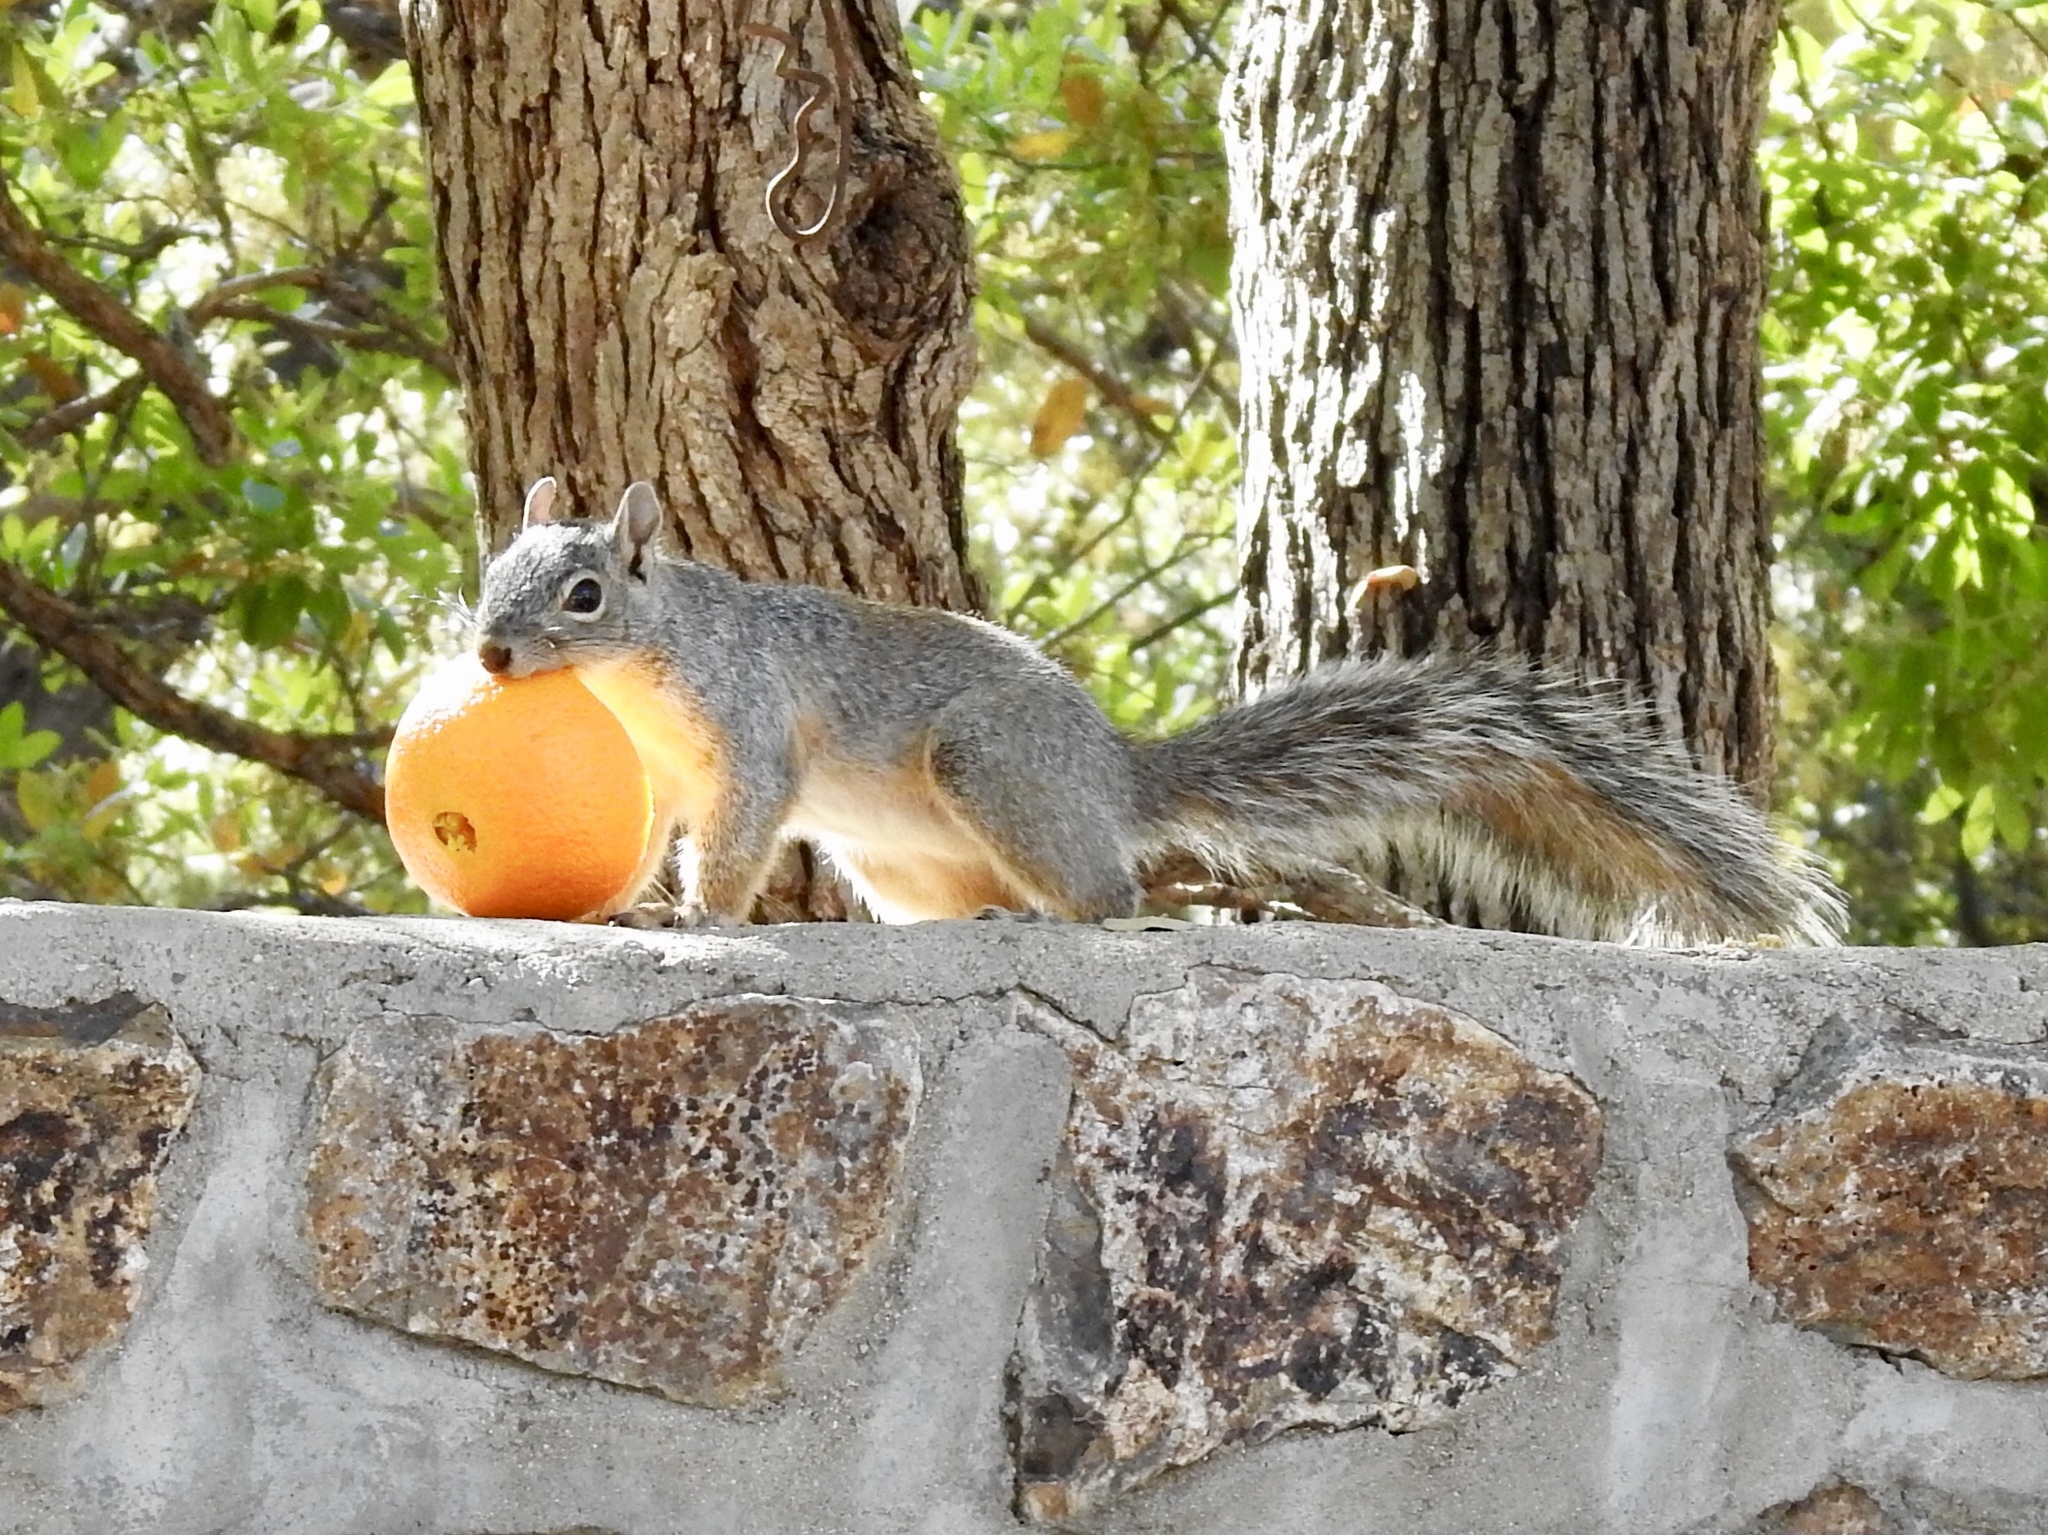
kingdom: Animalia
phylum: Chordata
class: Mammalia
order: Rodentia
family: Sciuridae
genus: Sciurus
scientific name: Sciurus arizonensis
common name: Arizona gray squirrel
